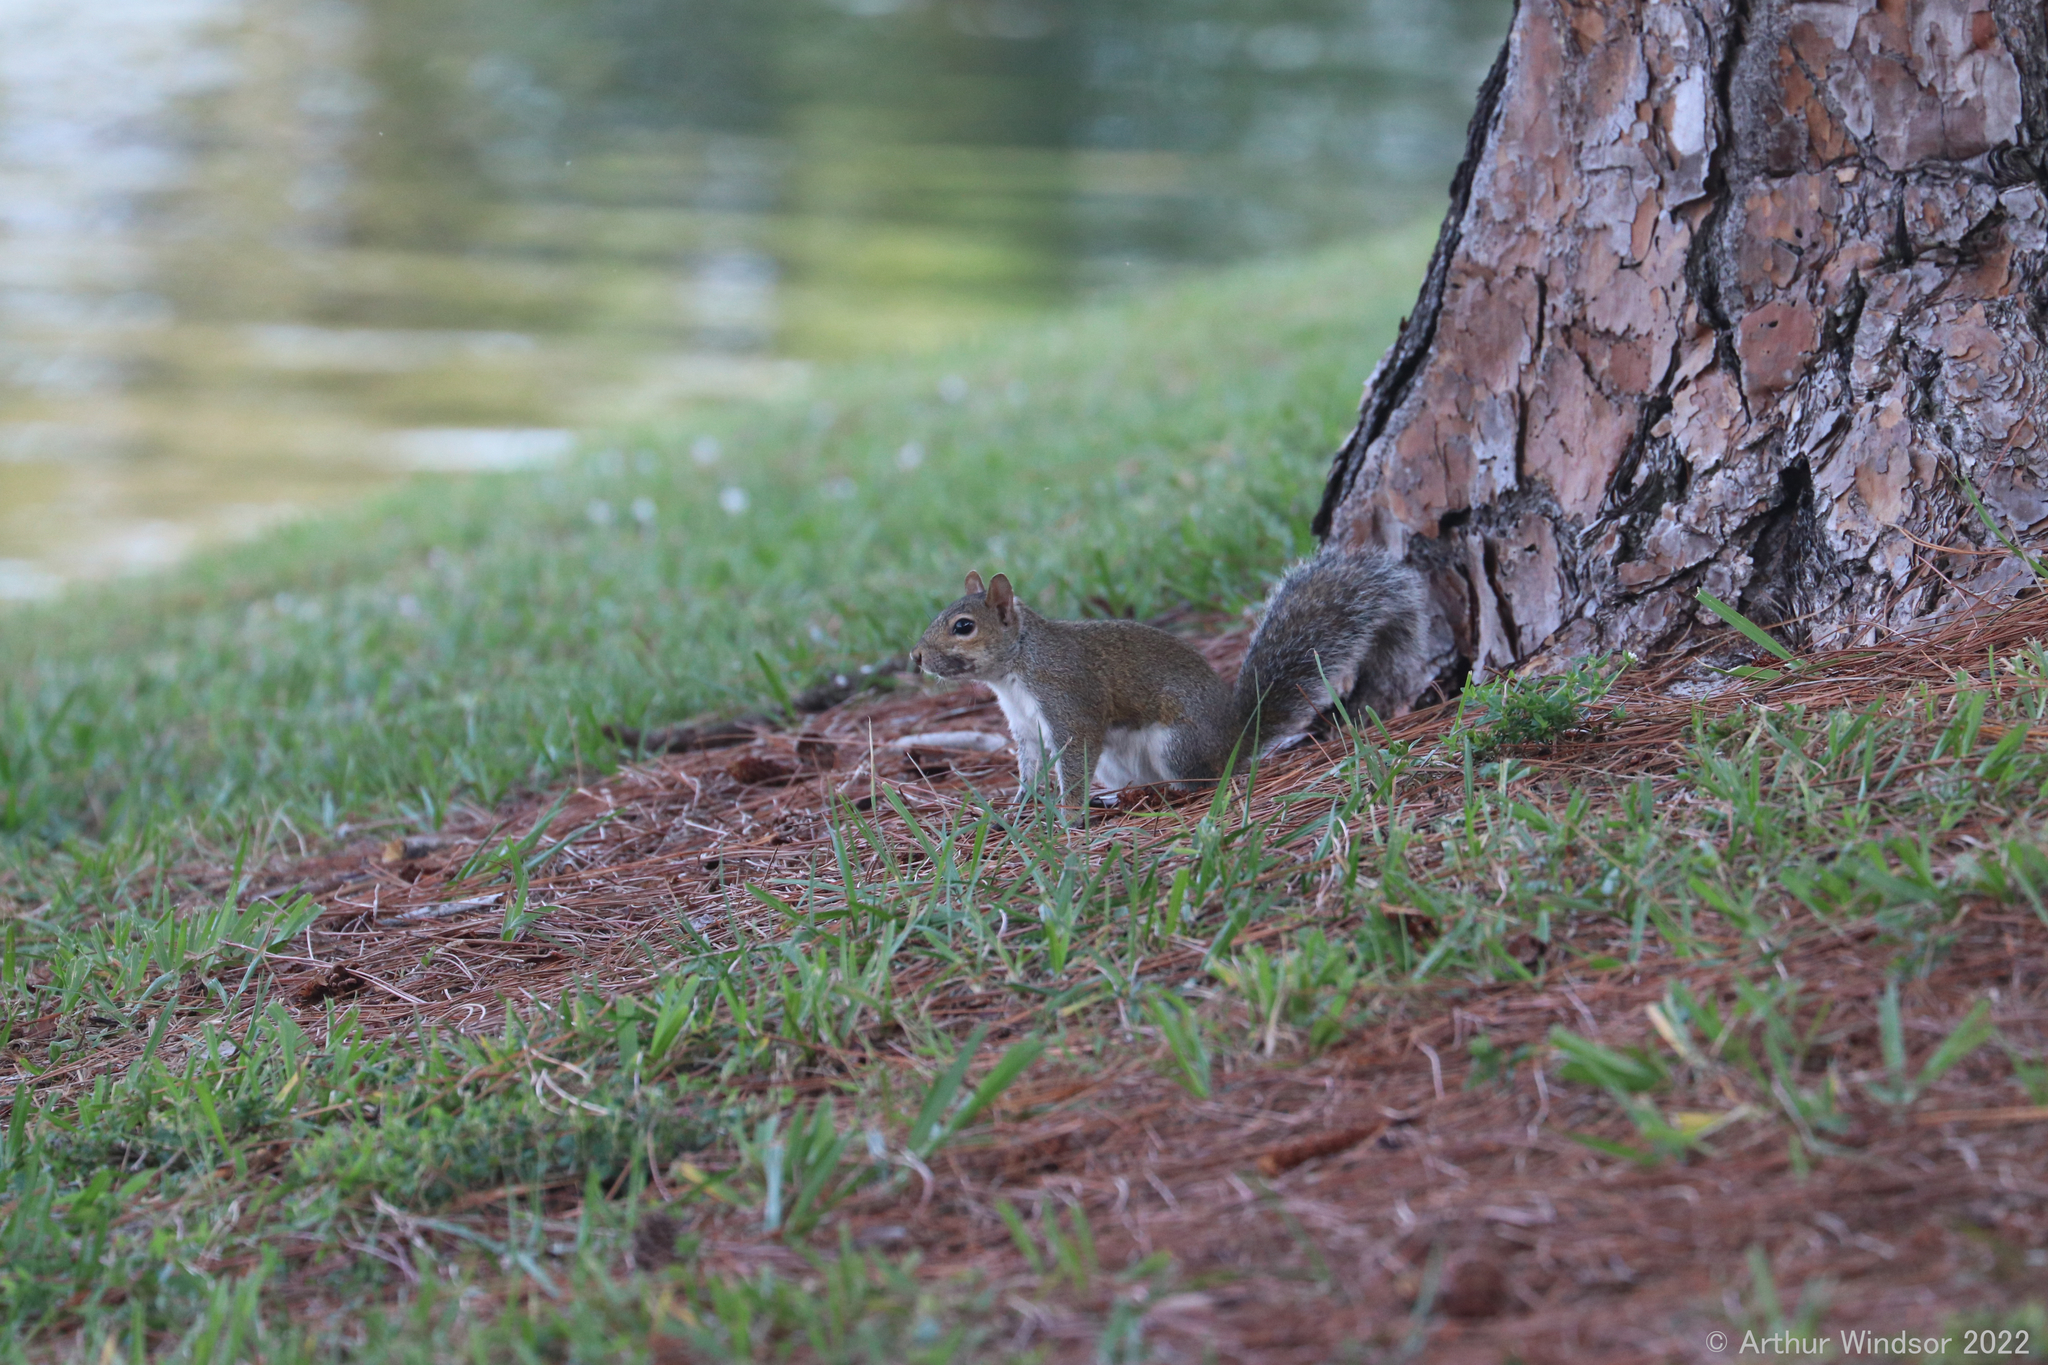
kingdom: Animalia
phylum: Chordata
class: Mammalia
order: Rodentia
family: Sciuridae
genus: Sciurus
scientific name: Sciurus carolinensis
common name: Eastern gray squirrel
